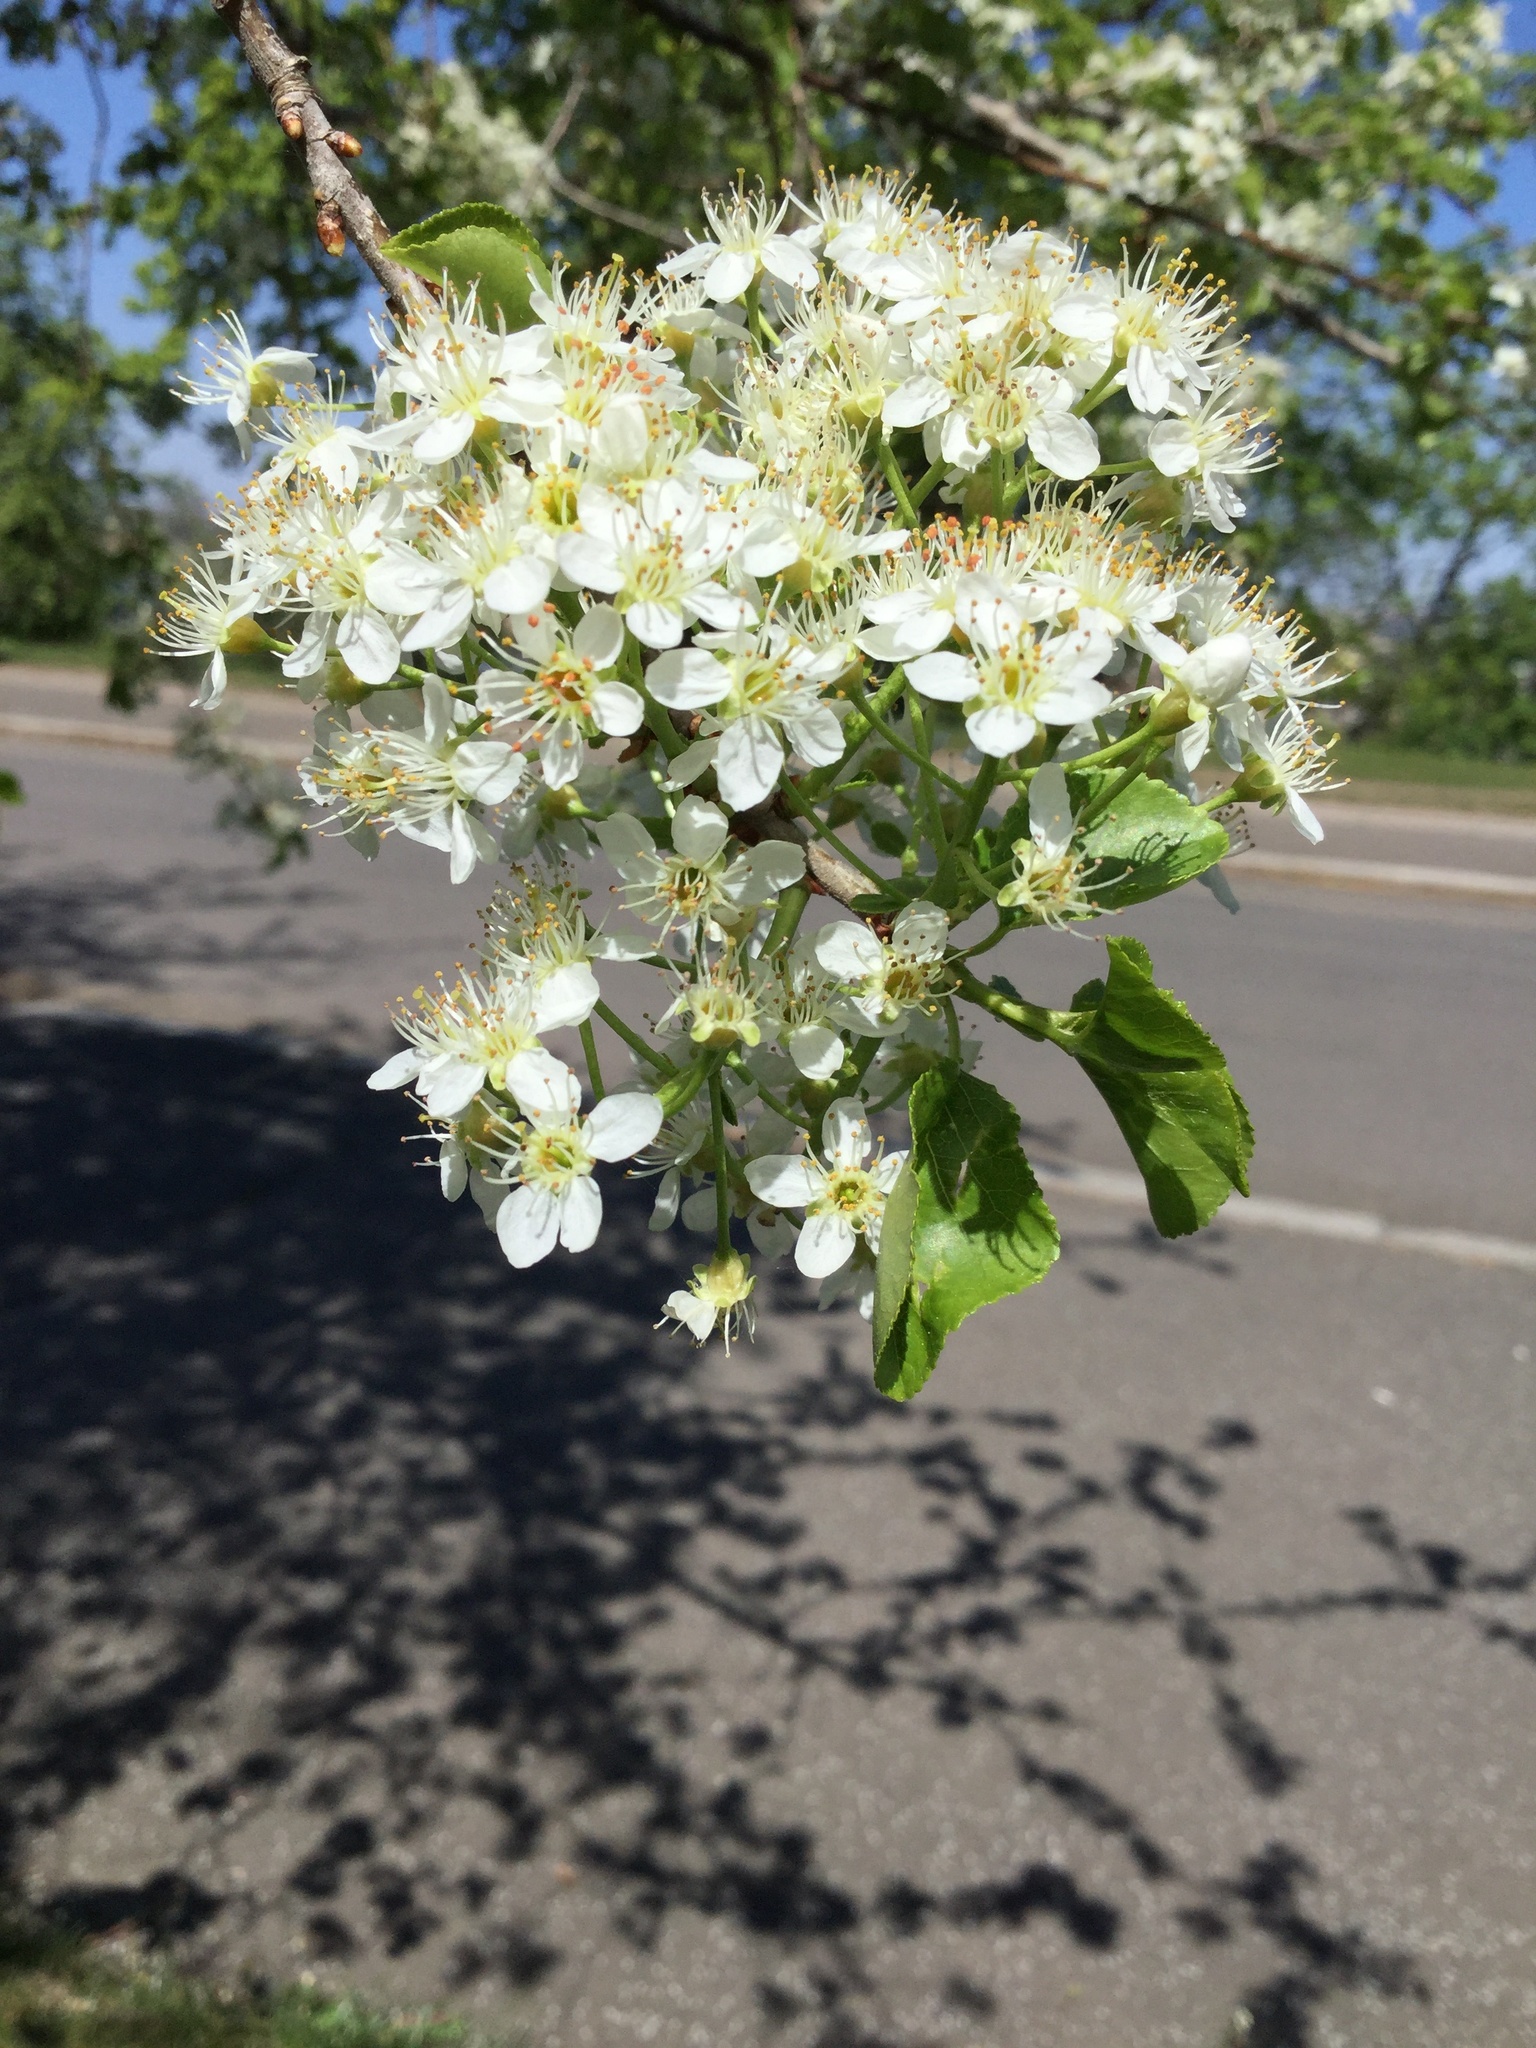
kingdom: Plantae
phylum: Tracheophyta
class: Magnoliopsida
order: Rosales
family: Rosaceae
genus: Prunus
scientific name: Prunus mahaleb
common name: Mahaleb cherry
